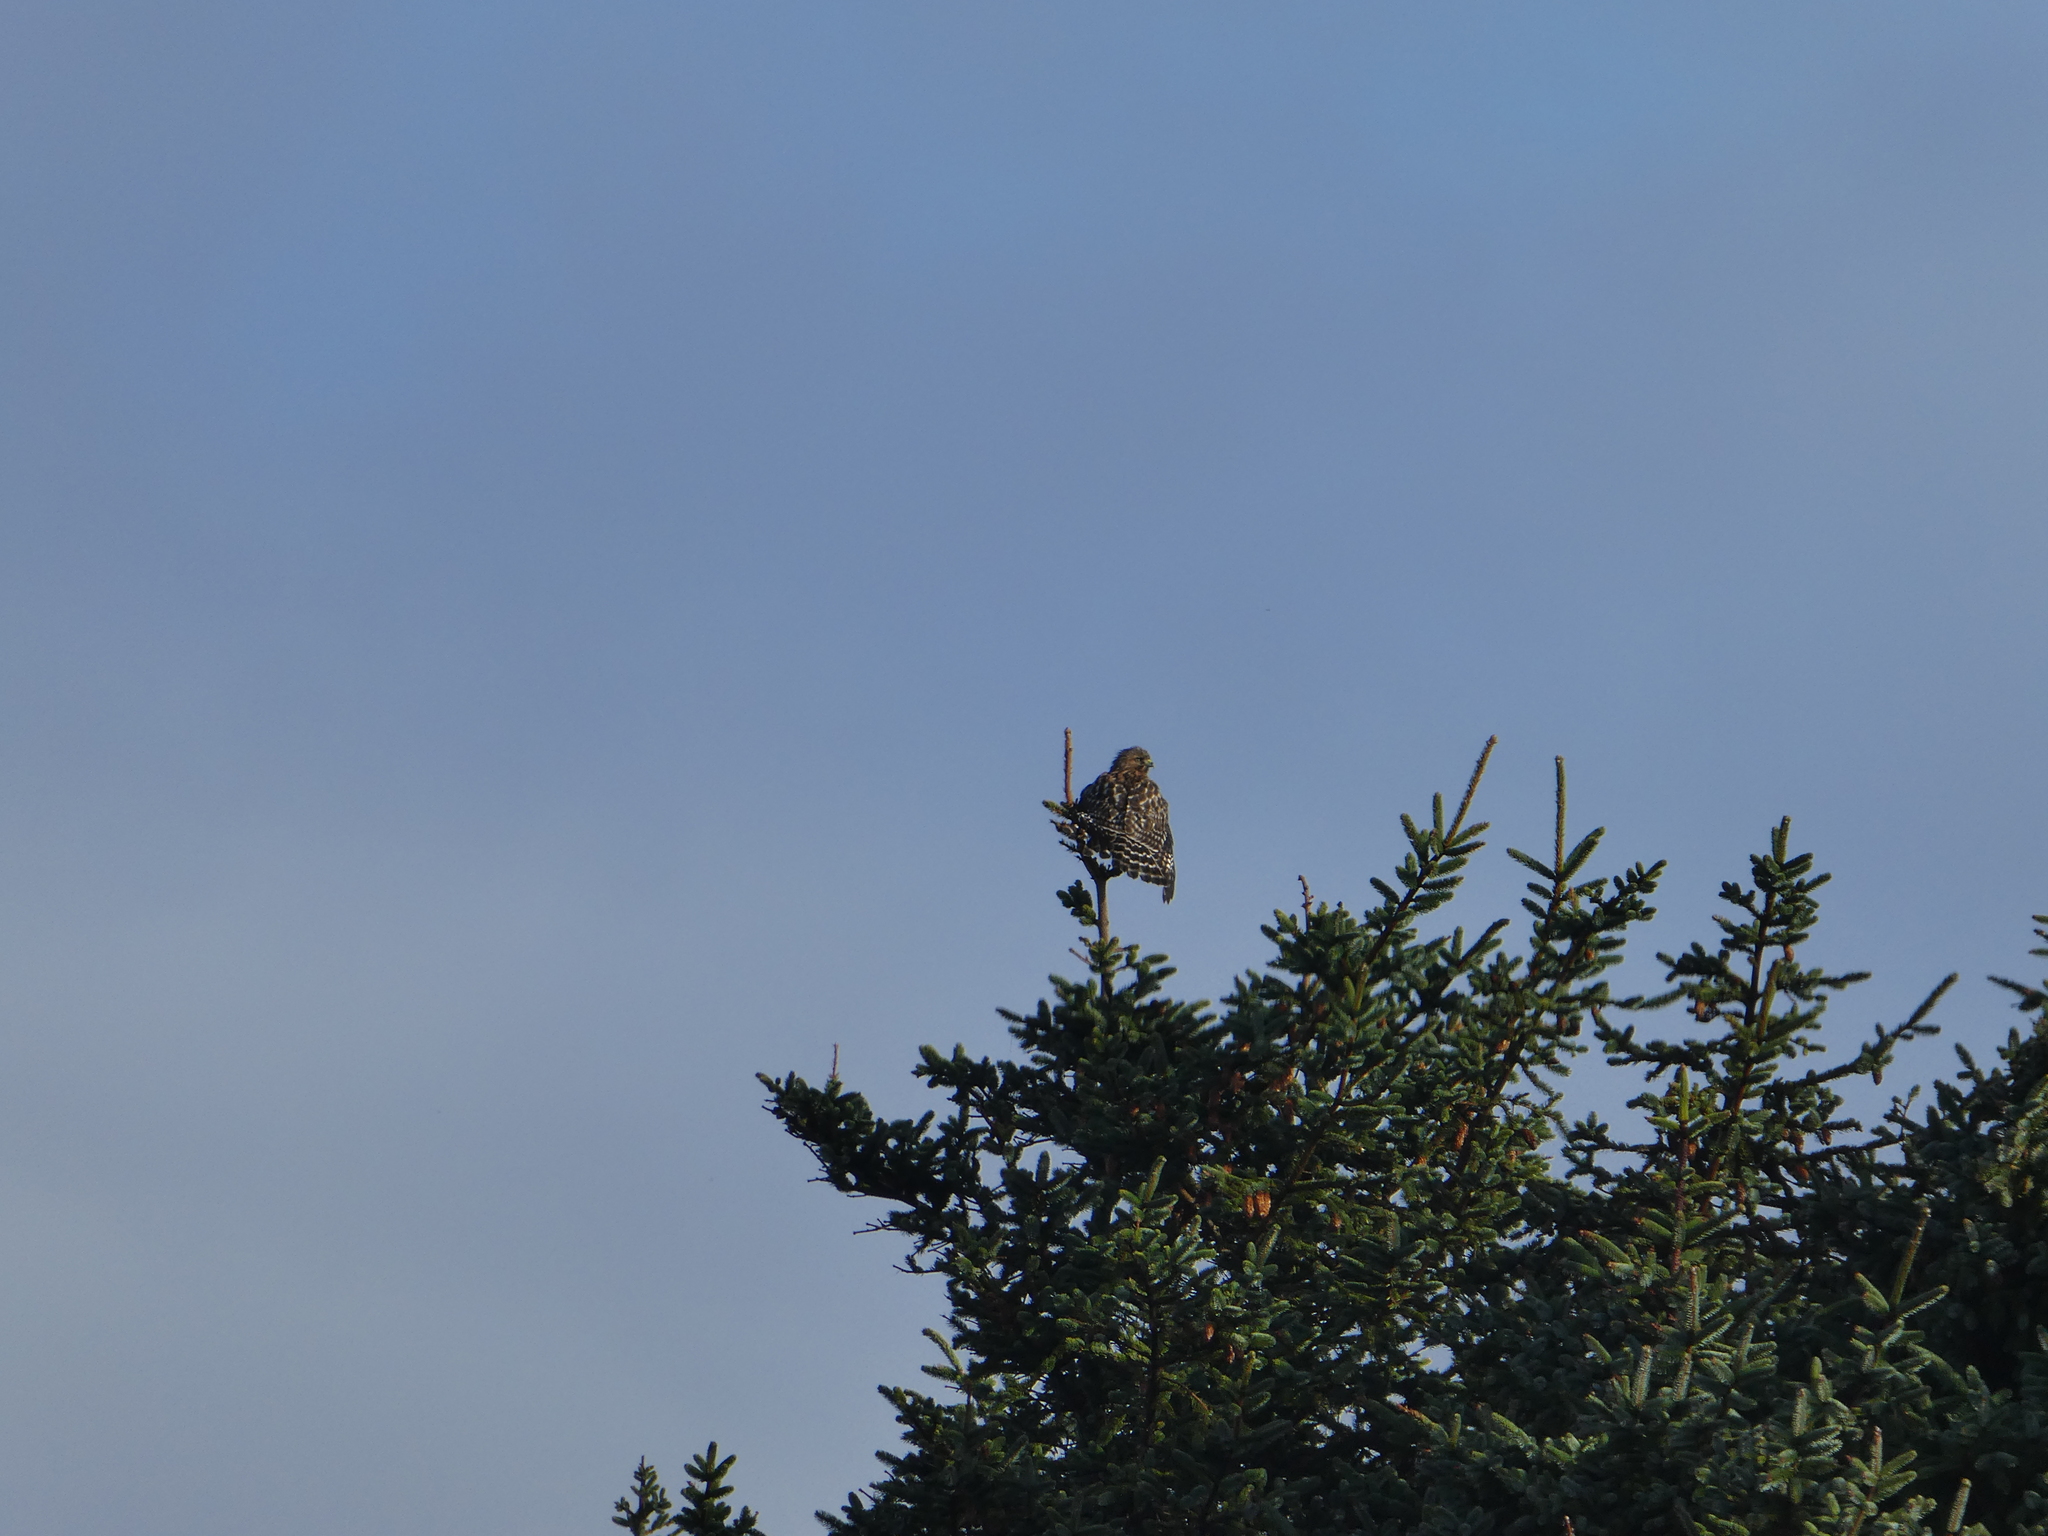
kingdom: Animalia
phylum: Chordata
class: Aves
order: Accipitriformes
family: Accipitridae
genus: Buteo
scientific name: Buteo lineatus
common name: Red-shouldered hawk
